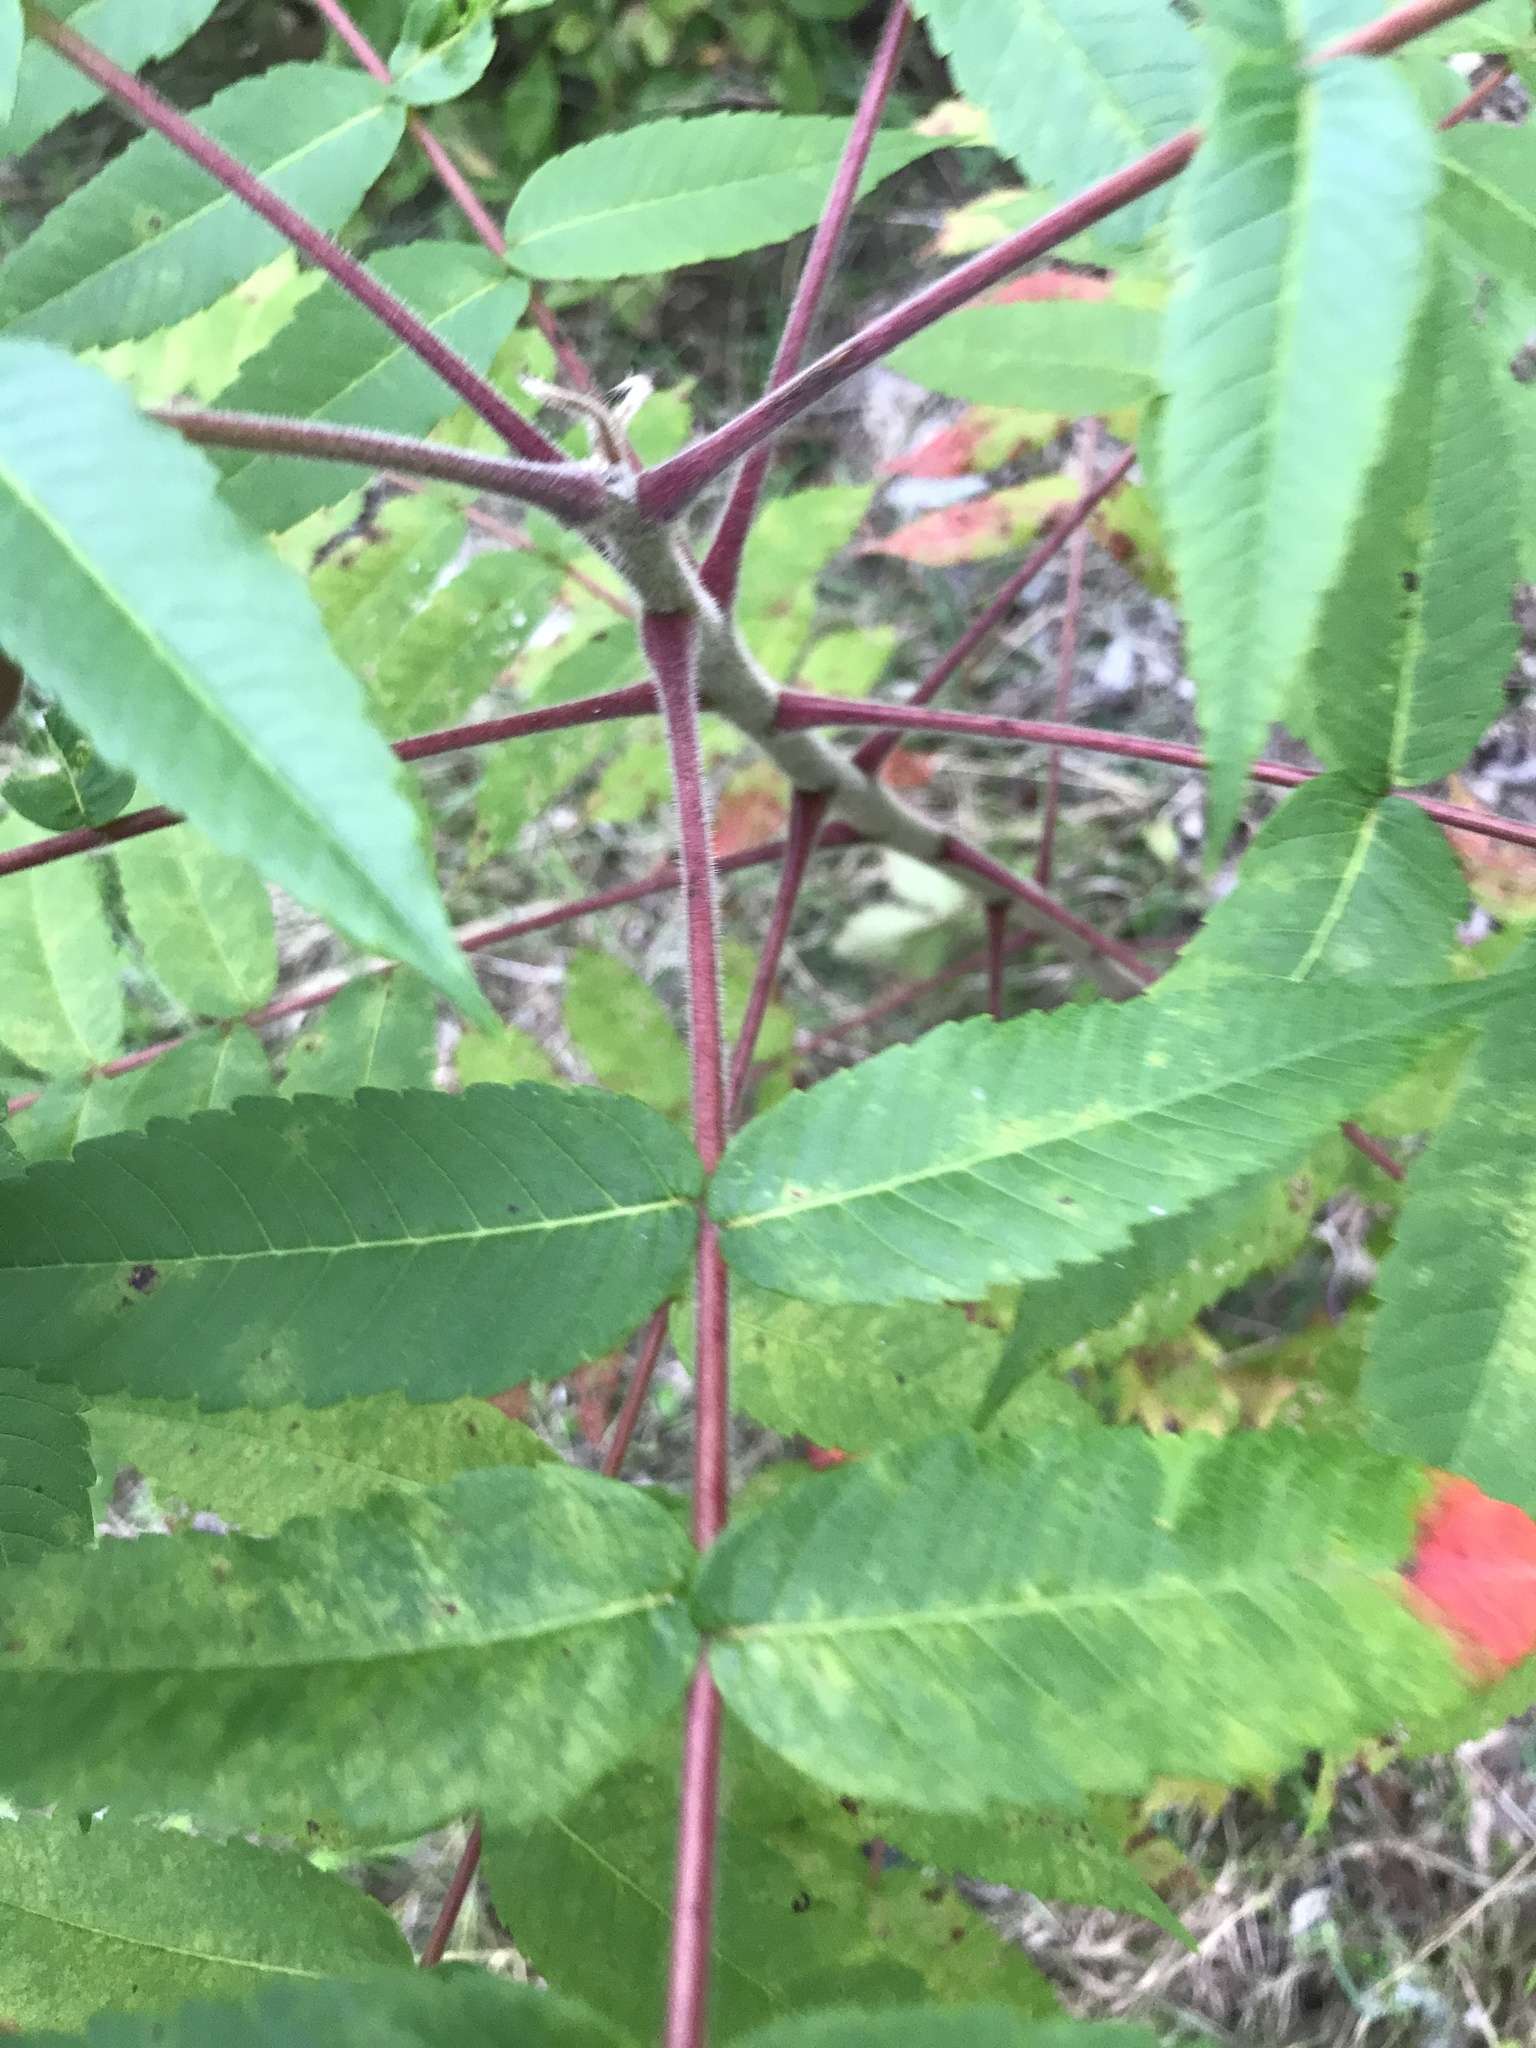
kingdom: Plantae
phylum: Tracheophyta
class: Magnoliopsida
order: Sapindales
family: Anacardiaceae
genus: Rhus
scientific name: Rhus typhina
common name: Staghorn sumac
